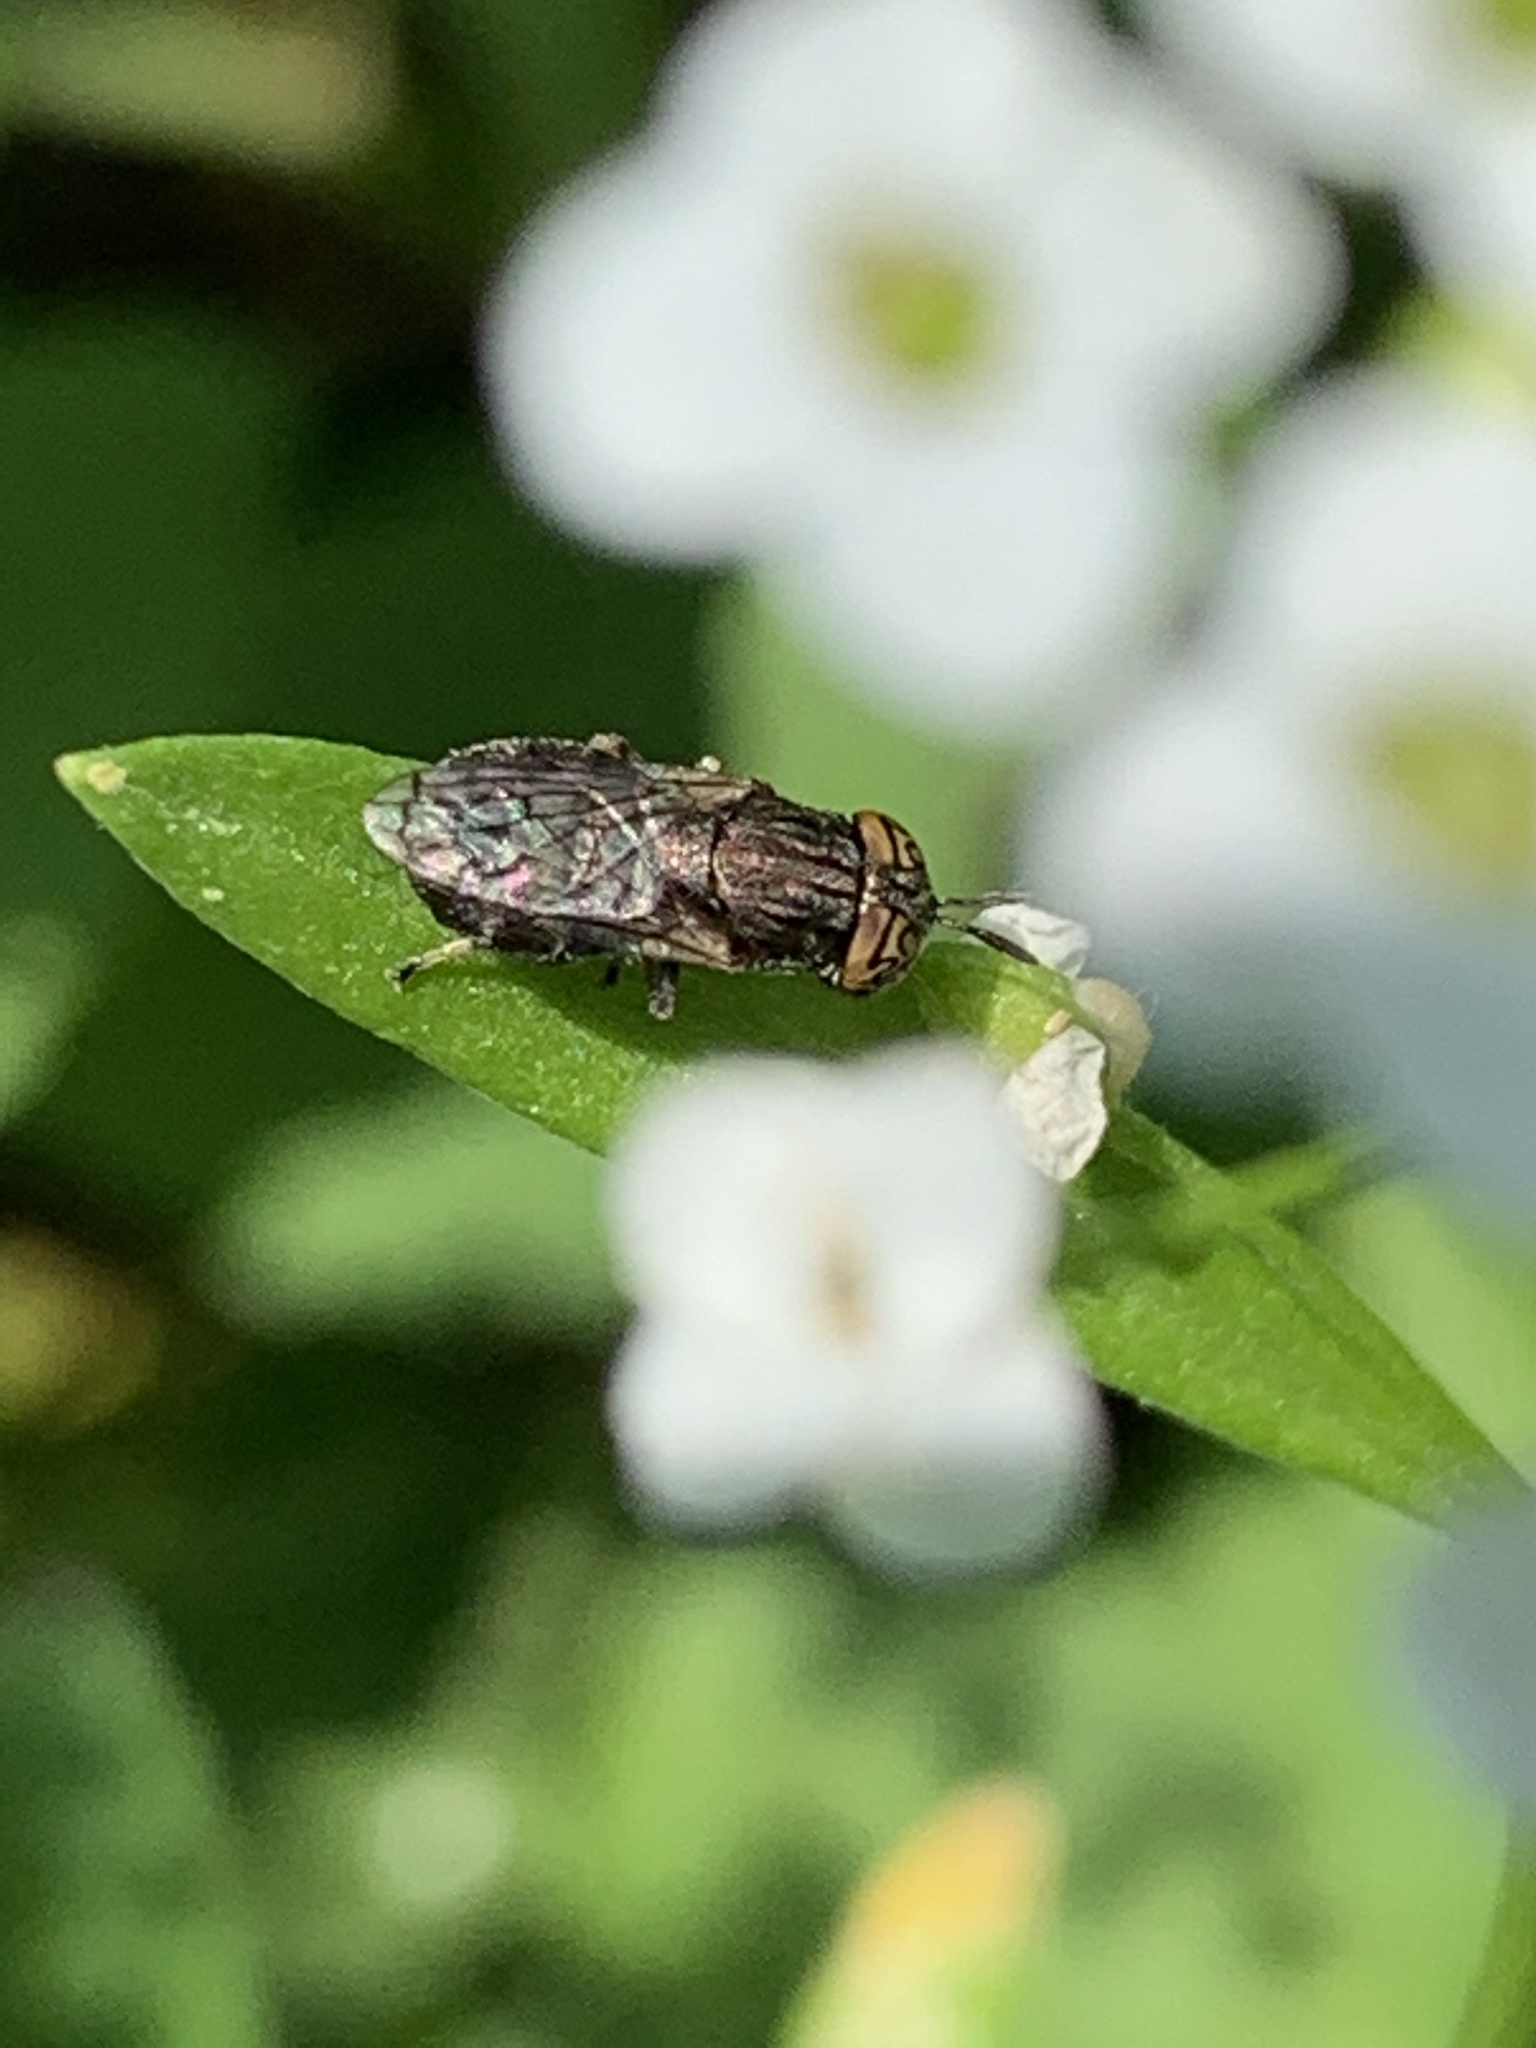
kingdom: Animalia
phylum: Arthropoda
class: Insecta
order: Diptera
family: Syrphidae
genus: Orthonevra
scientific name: Orthonevra nitida
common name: Wavy mucksucker
